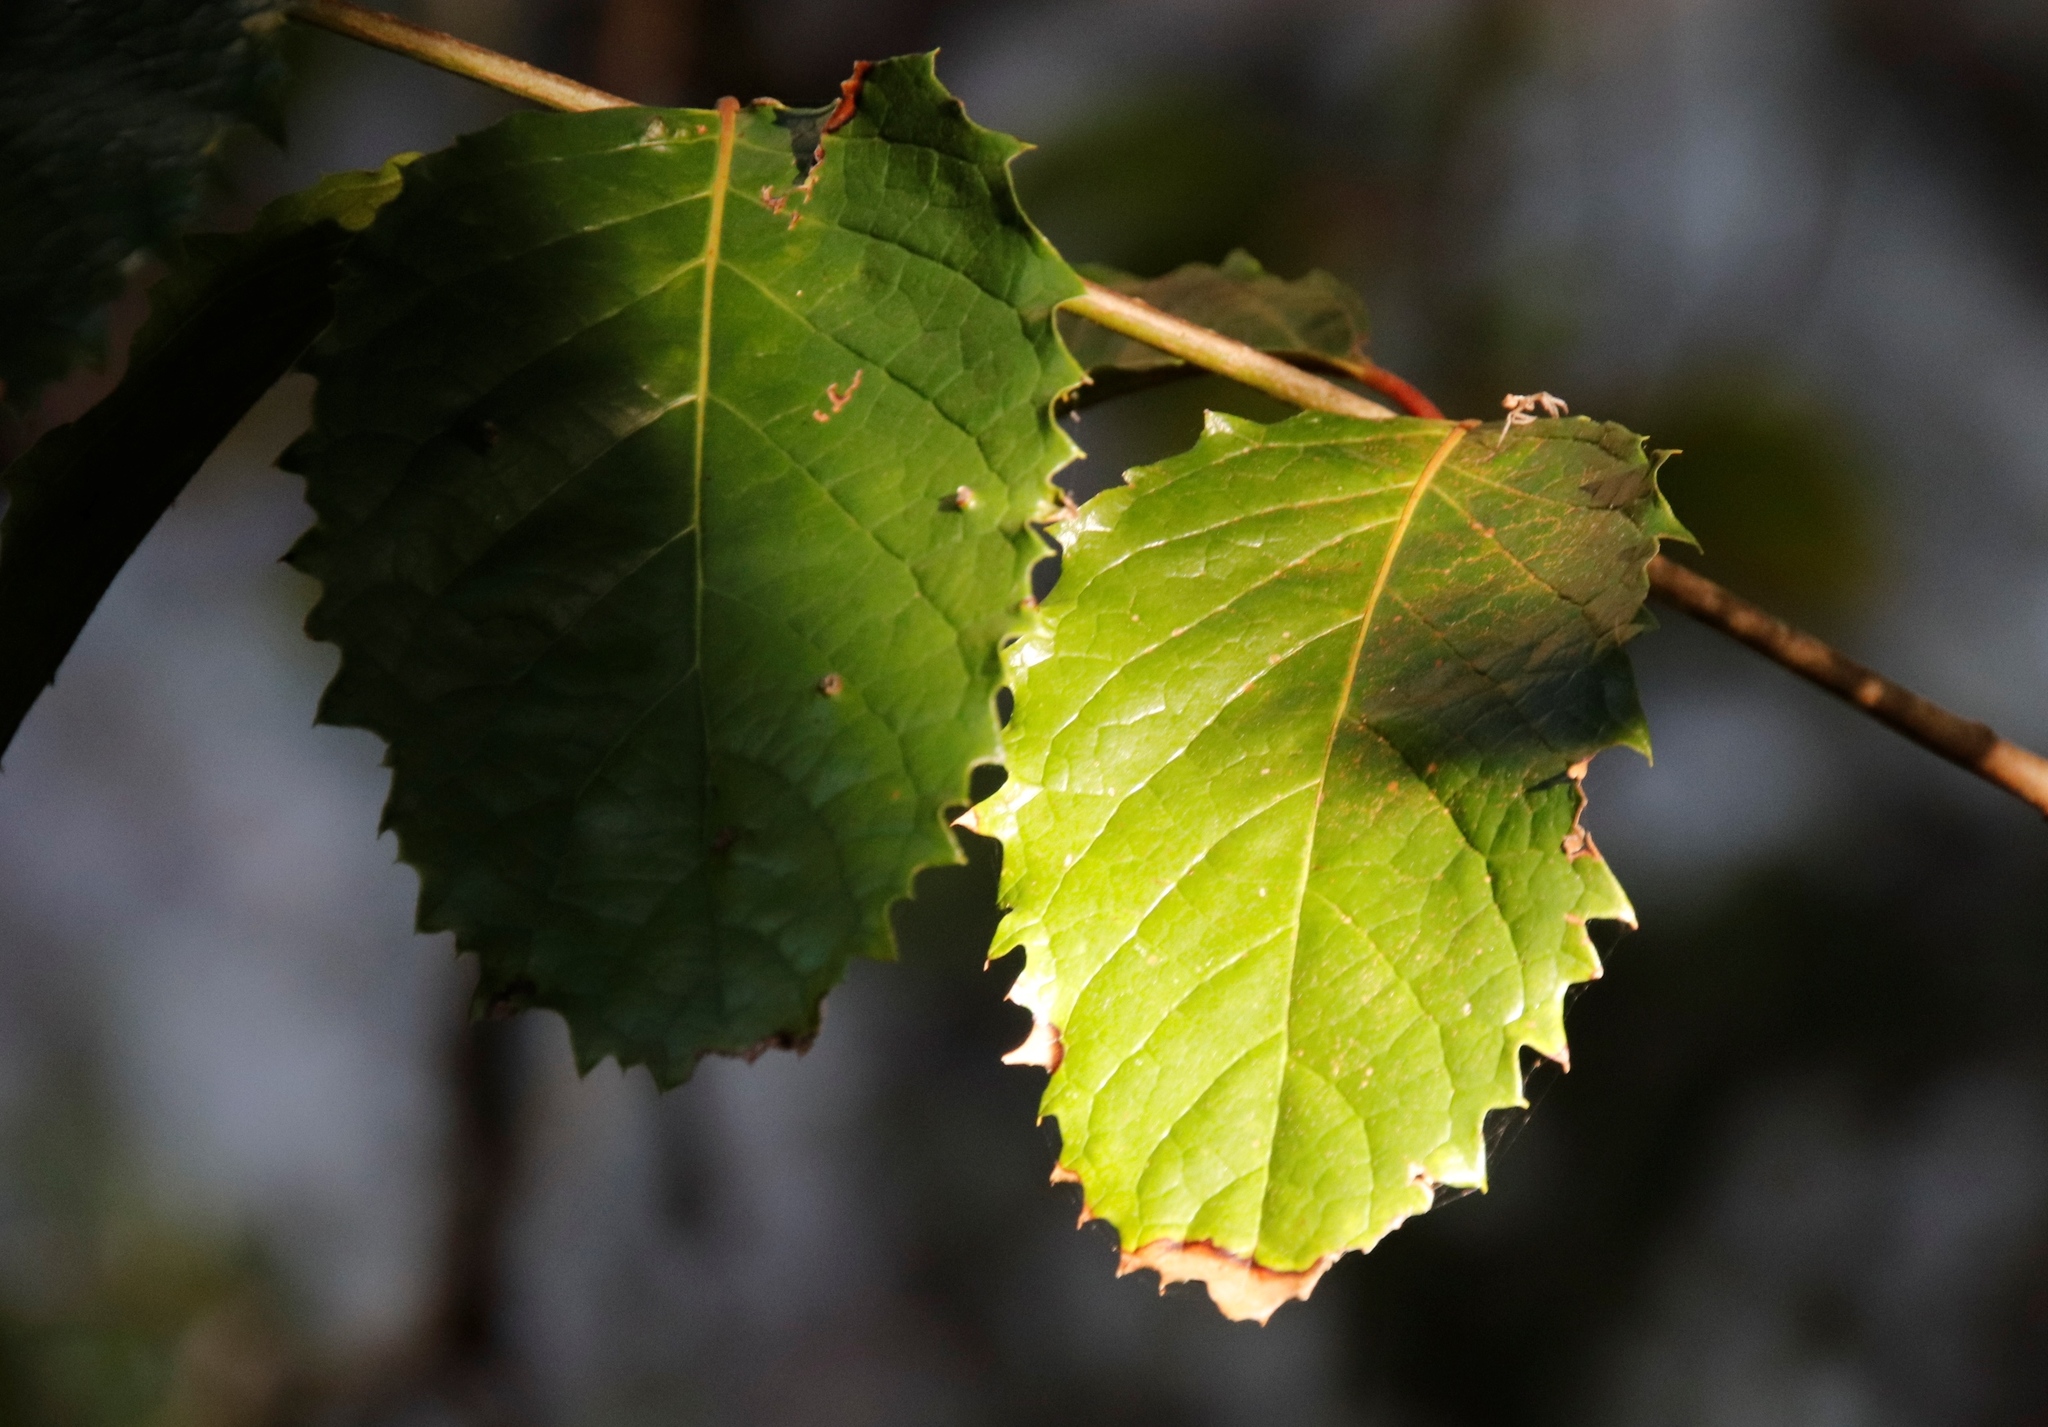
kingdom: Plantae
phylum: Tracheophyta
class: Magnoliopsida
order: Cornales
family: Curtisiaceae
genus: Curtisia
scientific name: Curtisia dentata
